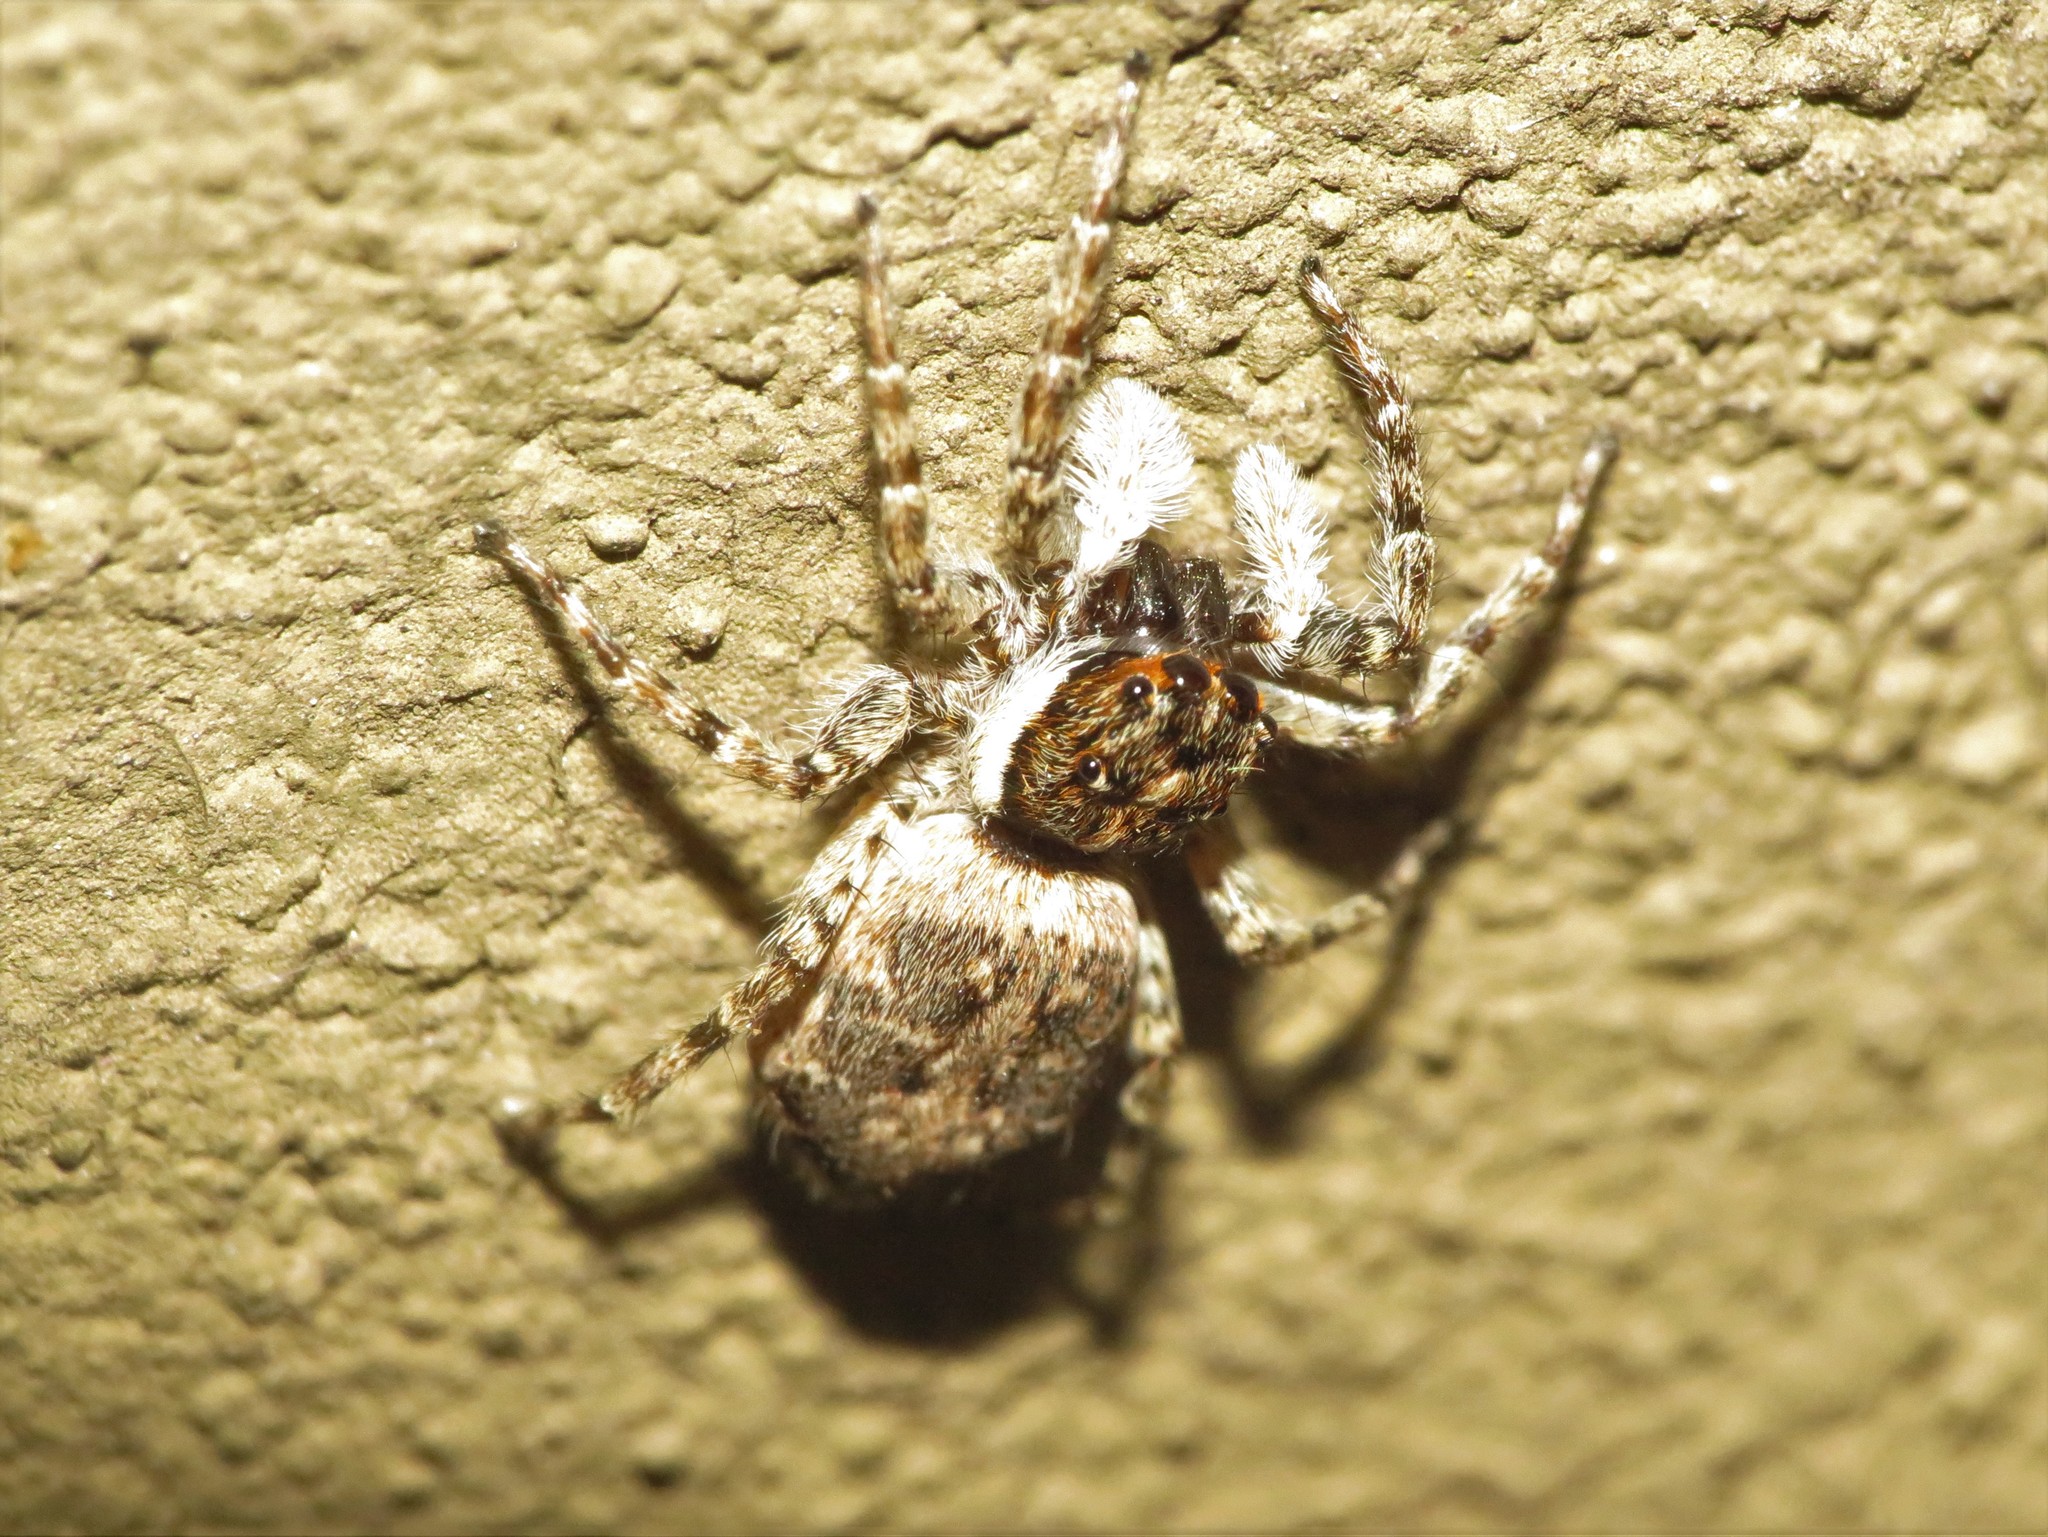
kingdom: Animalia
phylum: Arthropoda
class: Arachnida
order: Araneae
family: Salticidae
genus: Menemerus
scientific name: Menemerus semilimbatus
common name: Jumping spider
